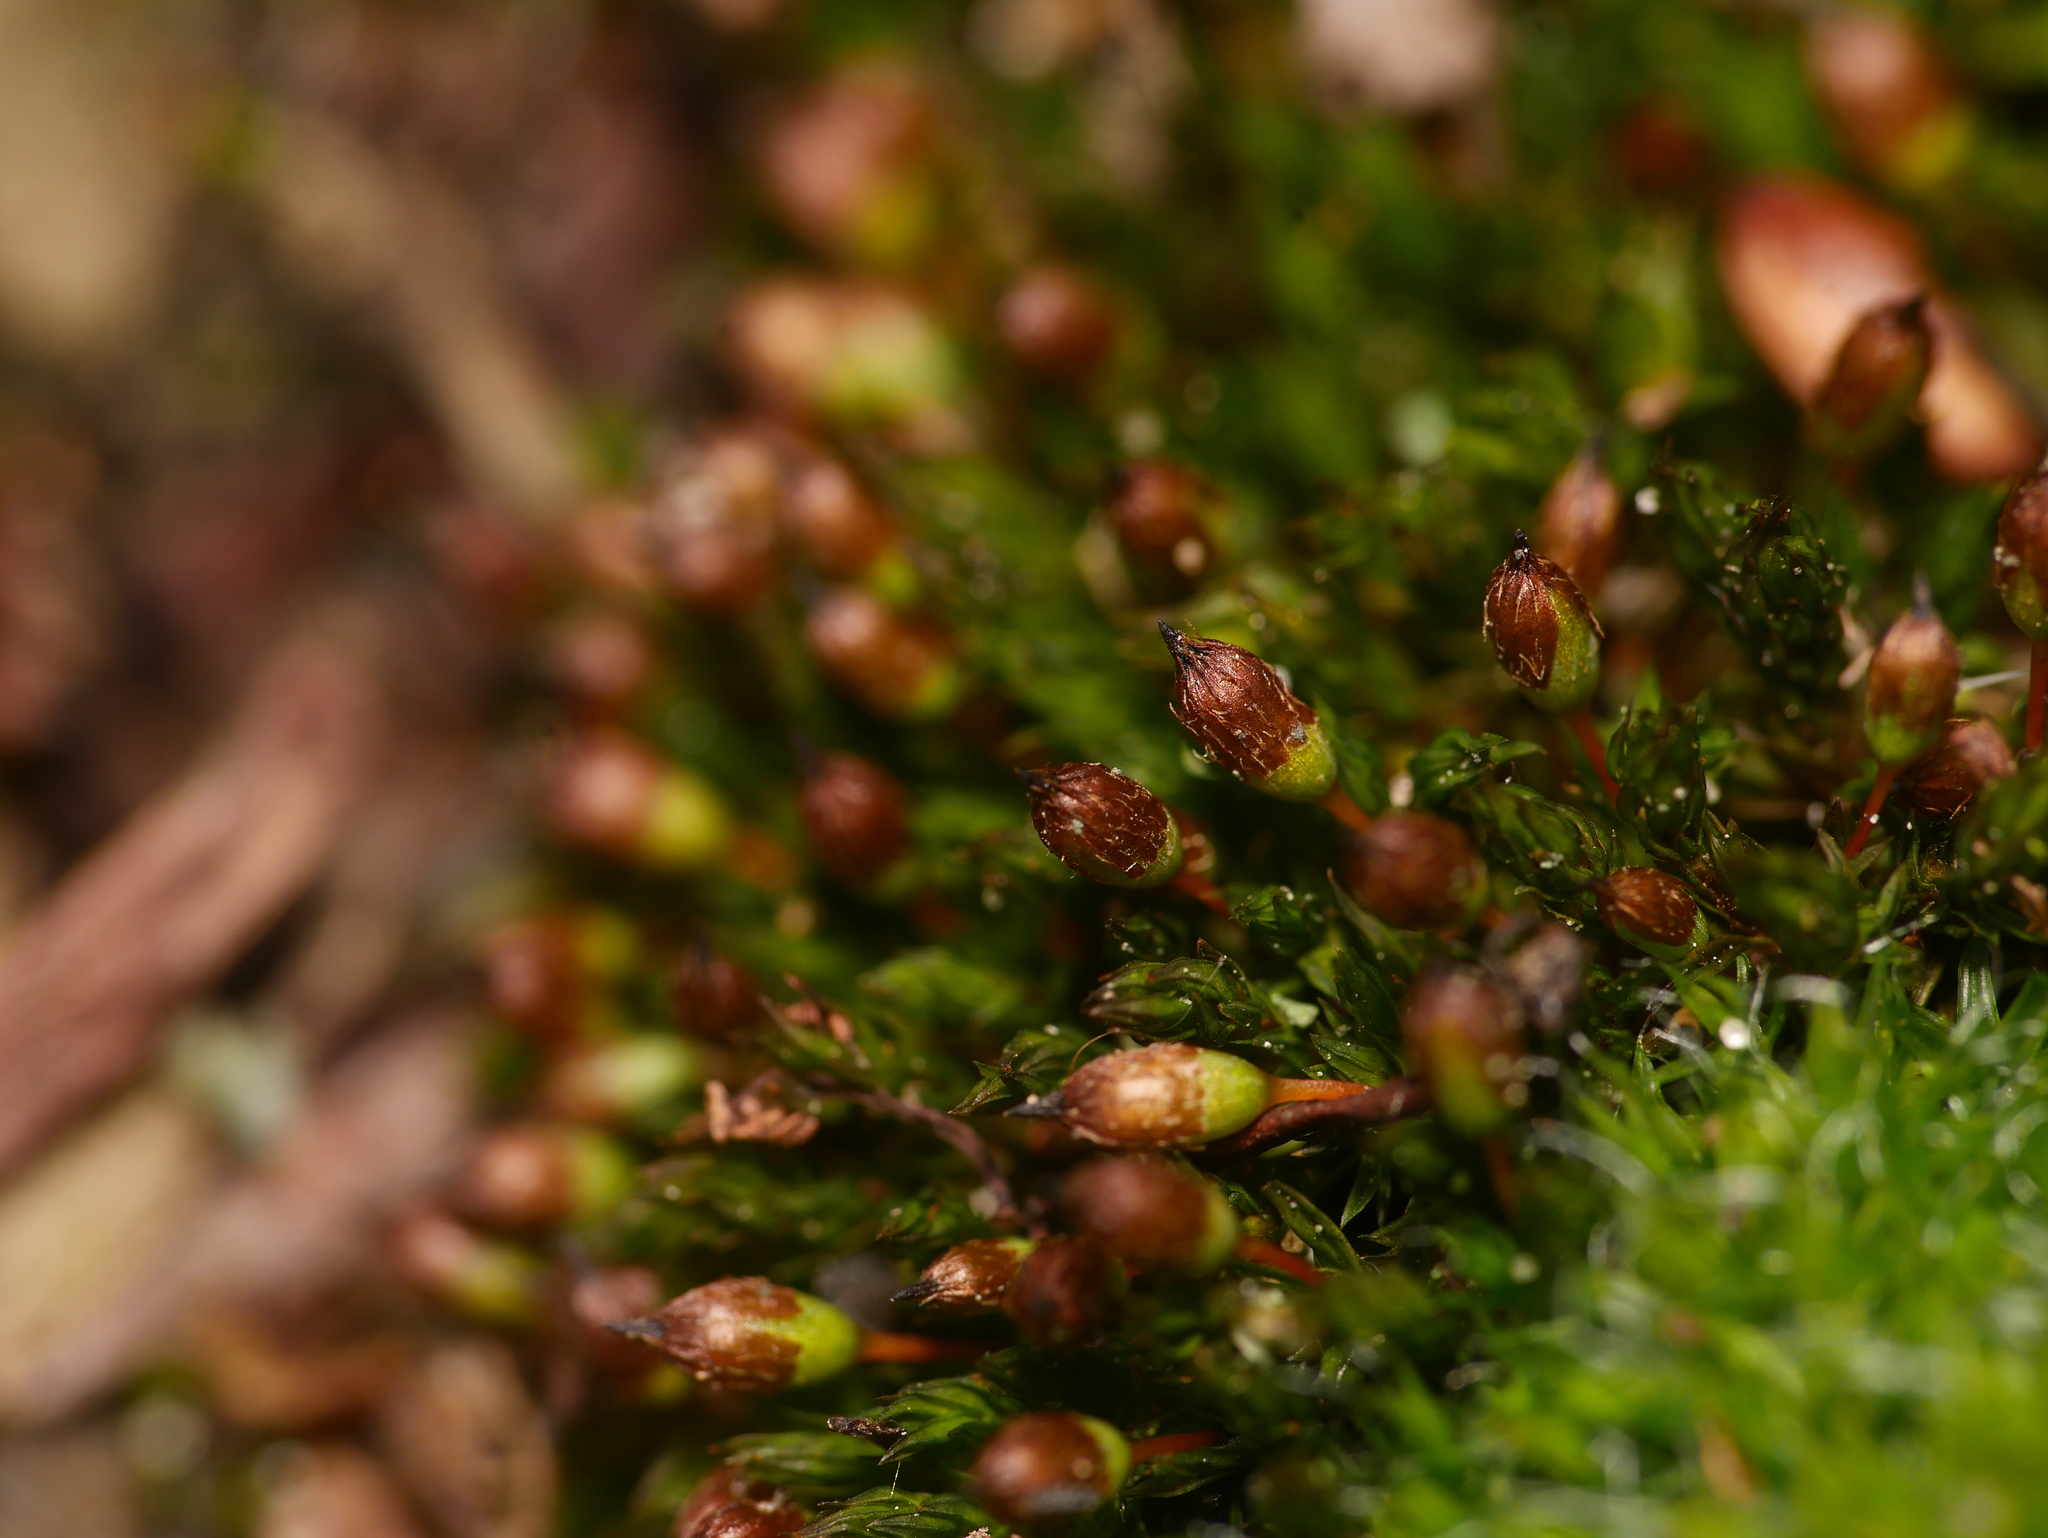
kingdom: Plantae
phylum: Bryophyta
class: Bryopsida
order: Orthotrichales
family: Orthotrichaceae
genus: Orthotrichum
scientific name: Orthotrichum anomalum
